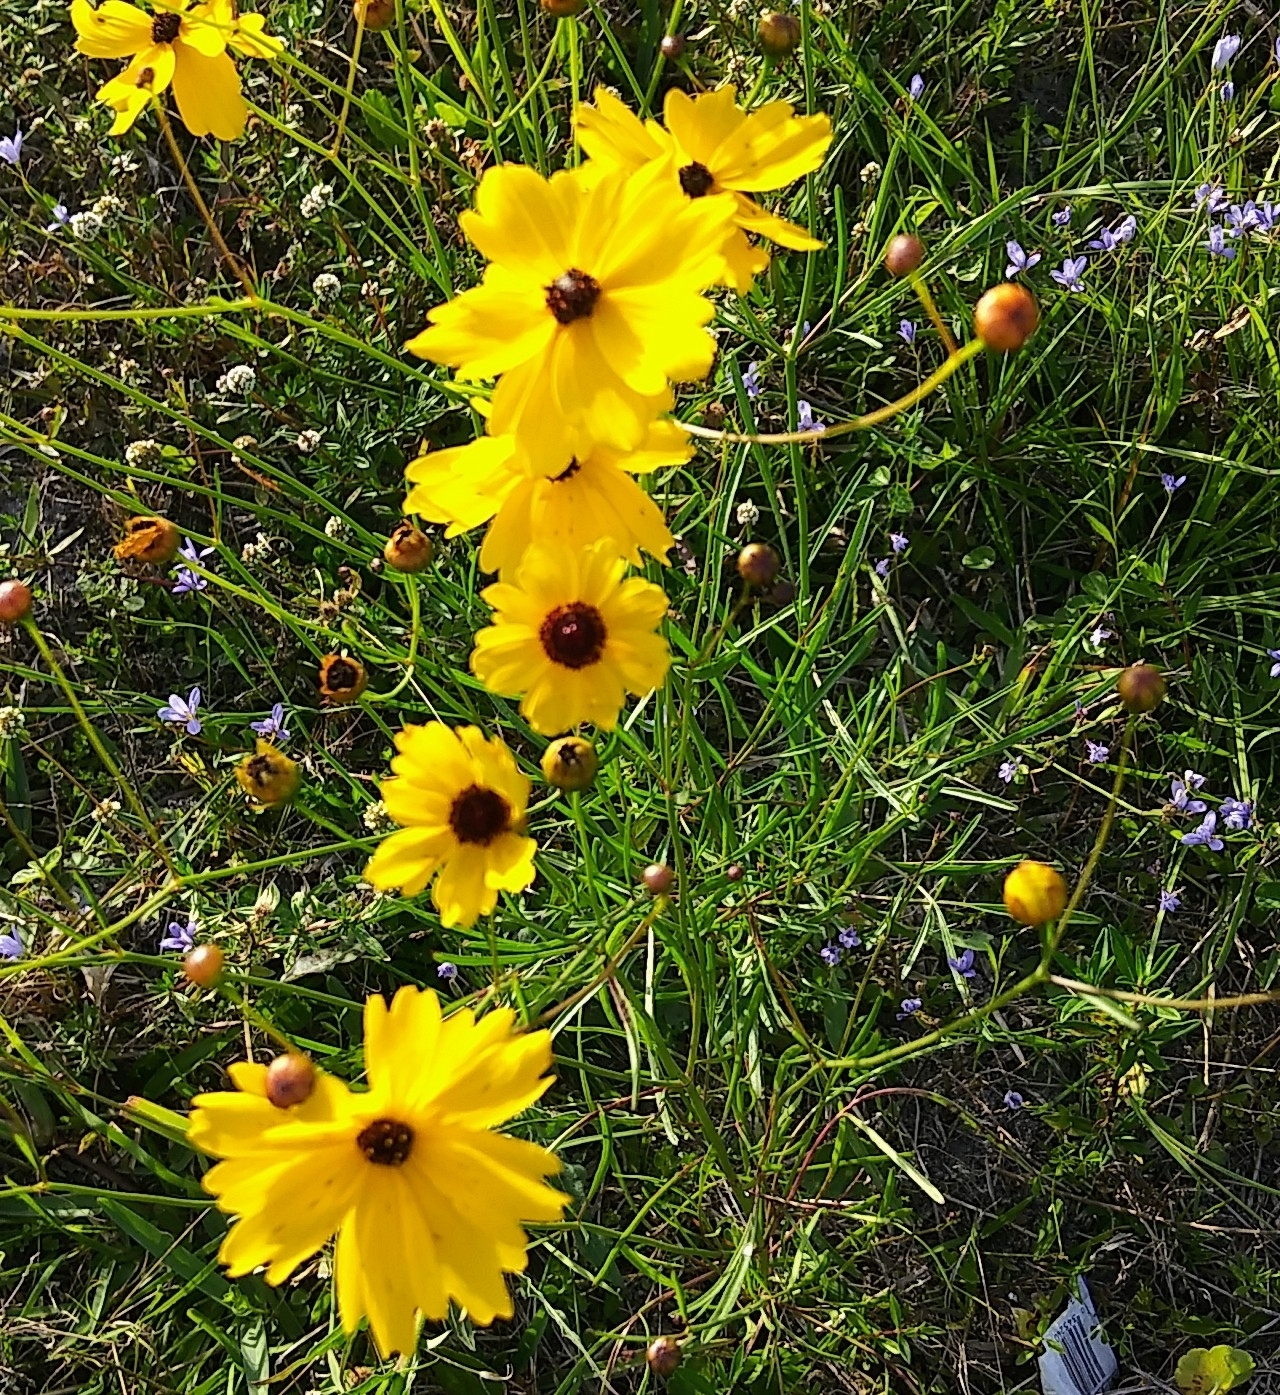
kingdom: Plantae
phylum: Tracheophyta
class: Magnoliopsida
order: Asterales
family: Asteraceae
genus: Coreopsis
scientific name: Coreopsis leavenworthii
